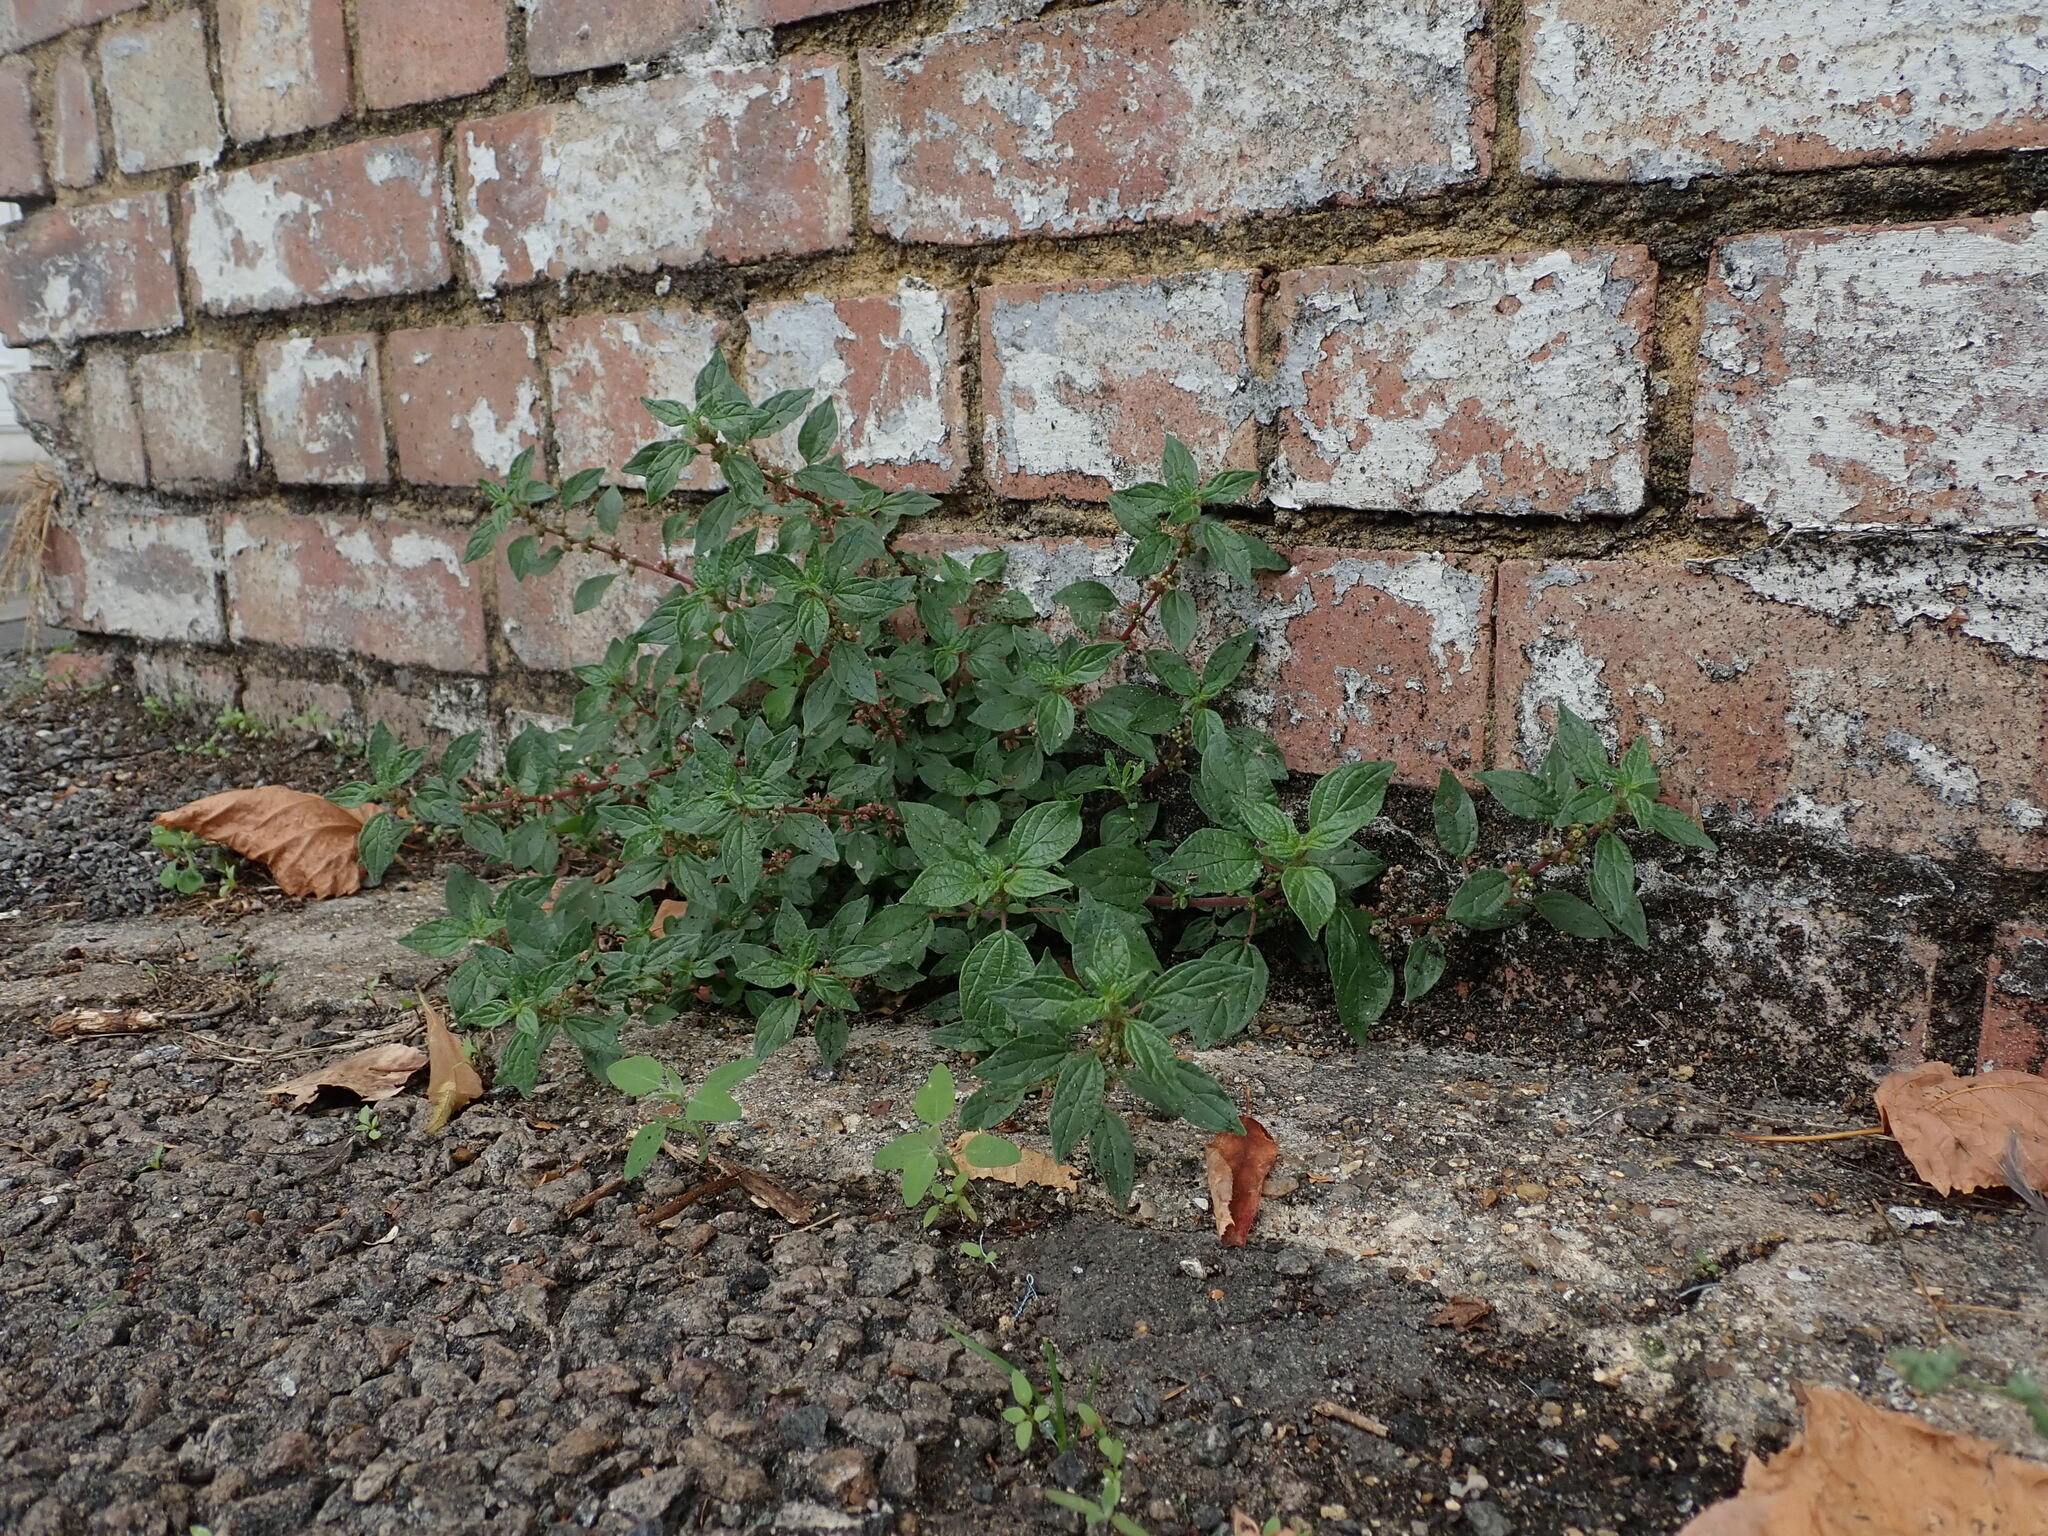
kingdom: Plantae
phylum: Tracheophyta
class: Magnoliopsida
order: Rosales
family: Urticaceae
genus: Parietaria
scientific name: Parietaria judaica
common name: Pellitory-of-the-wall
